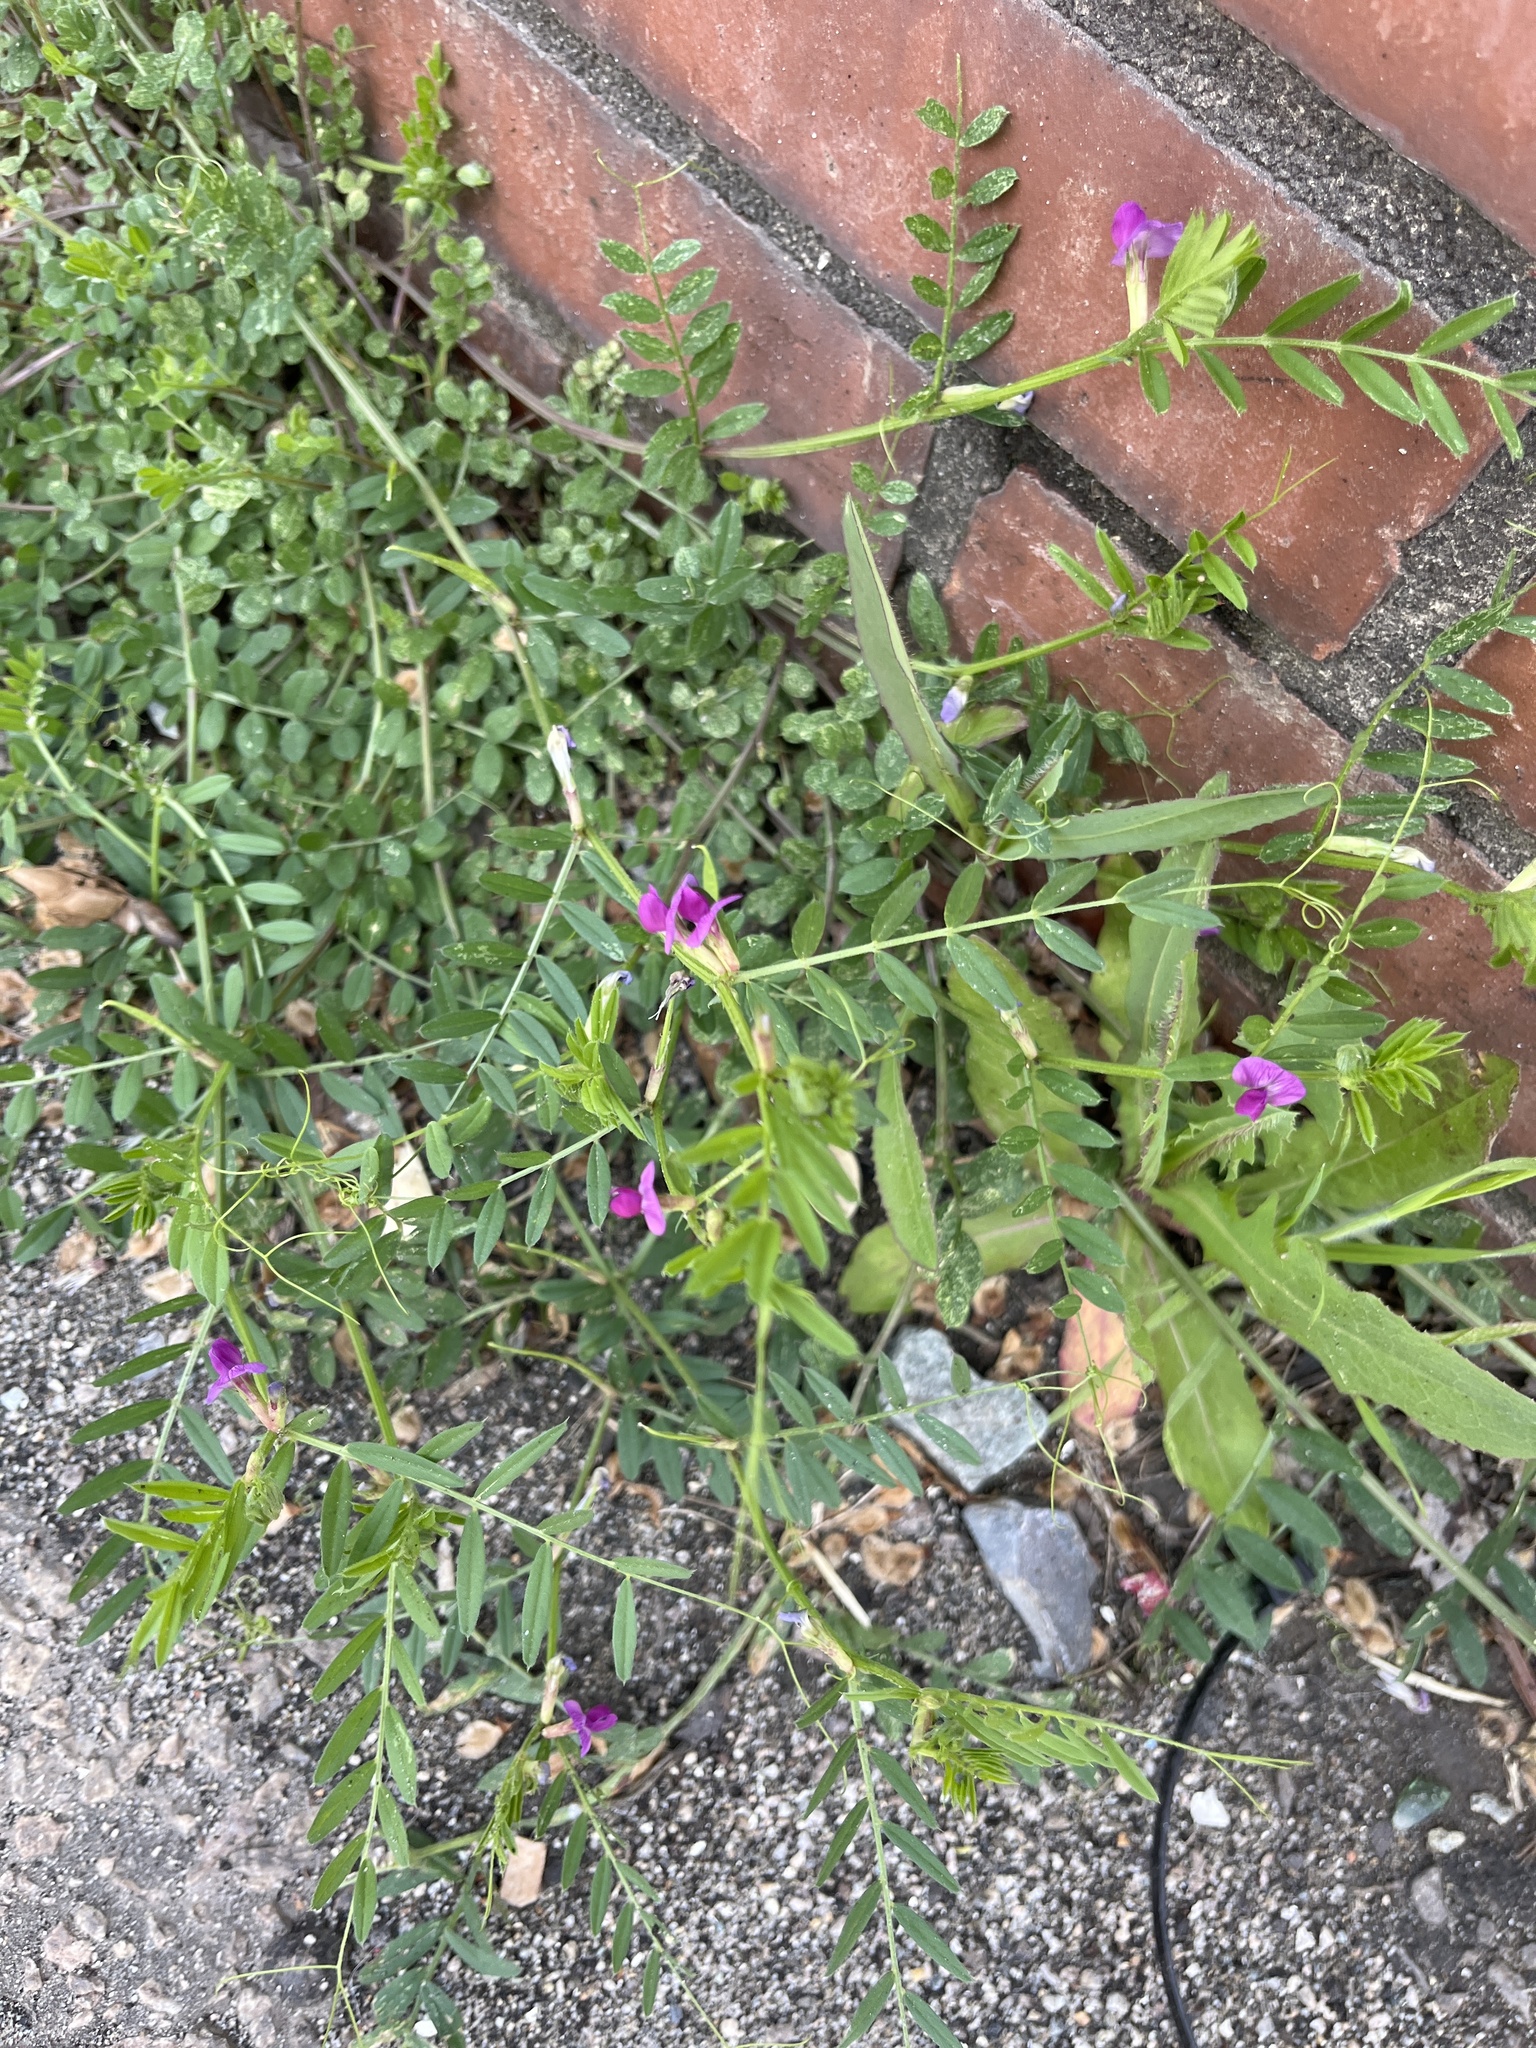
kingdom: Plantae
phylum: Tracheophyta
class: Magnoliopsida
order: Fabales
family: Fabaceae
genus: Vicia
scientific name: Vicia sativa
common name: Garden vetch
